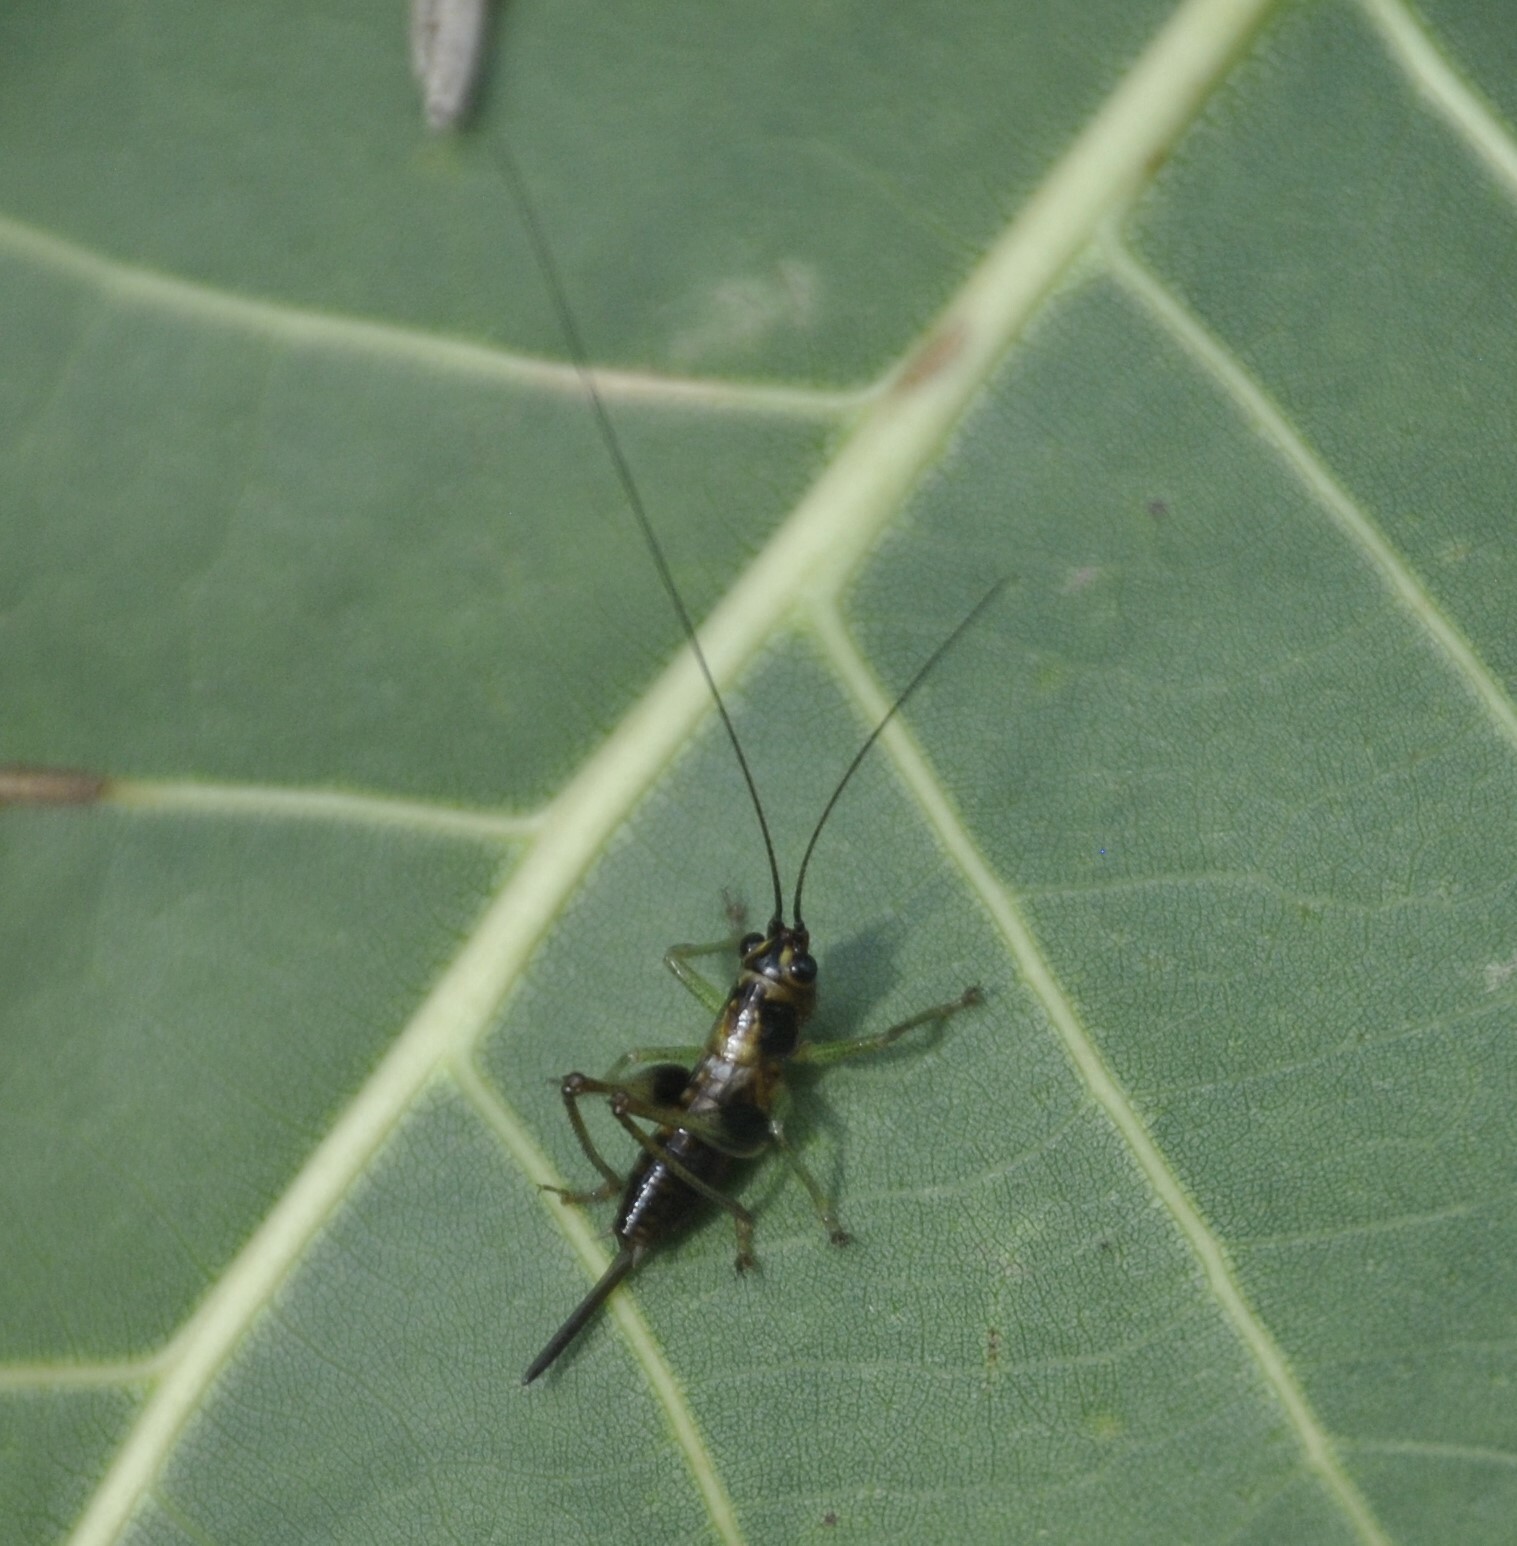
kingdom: Animalia
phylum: Arthropoda
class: Insecta
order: Orthoptera
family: Tettigoniidae
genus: Conocephalus
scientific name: Conocephalus nigropleurum
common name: Black-sided meadow katydid
